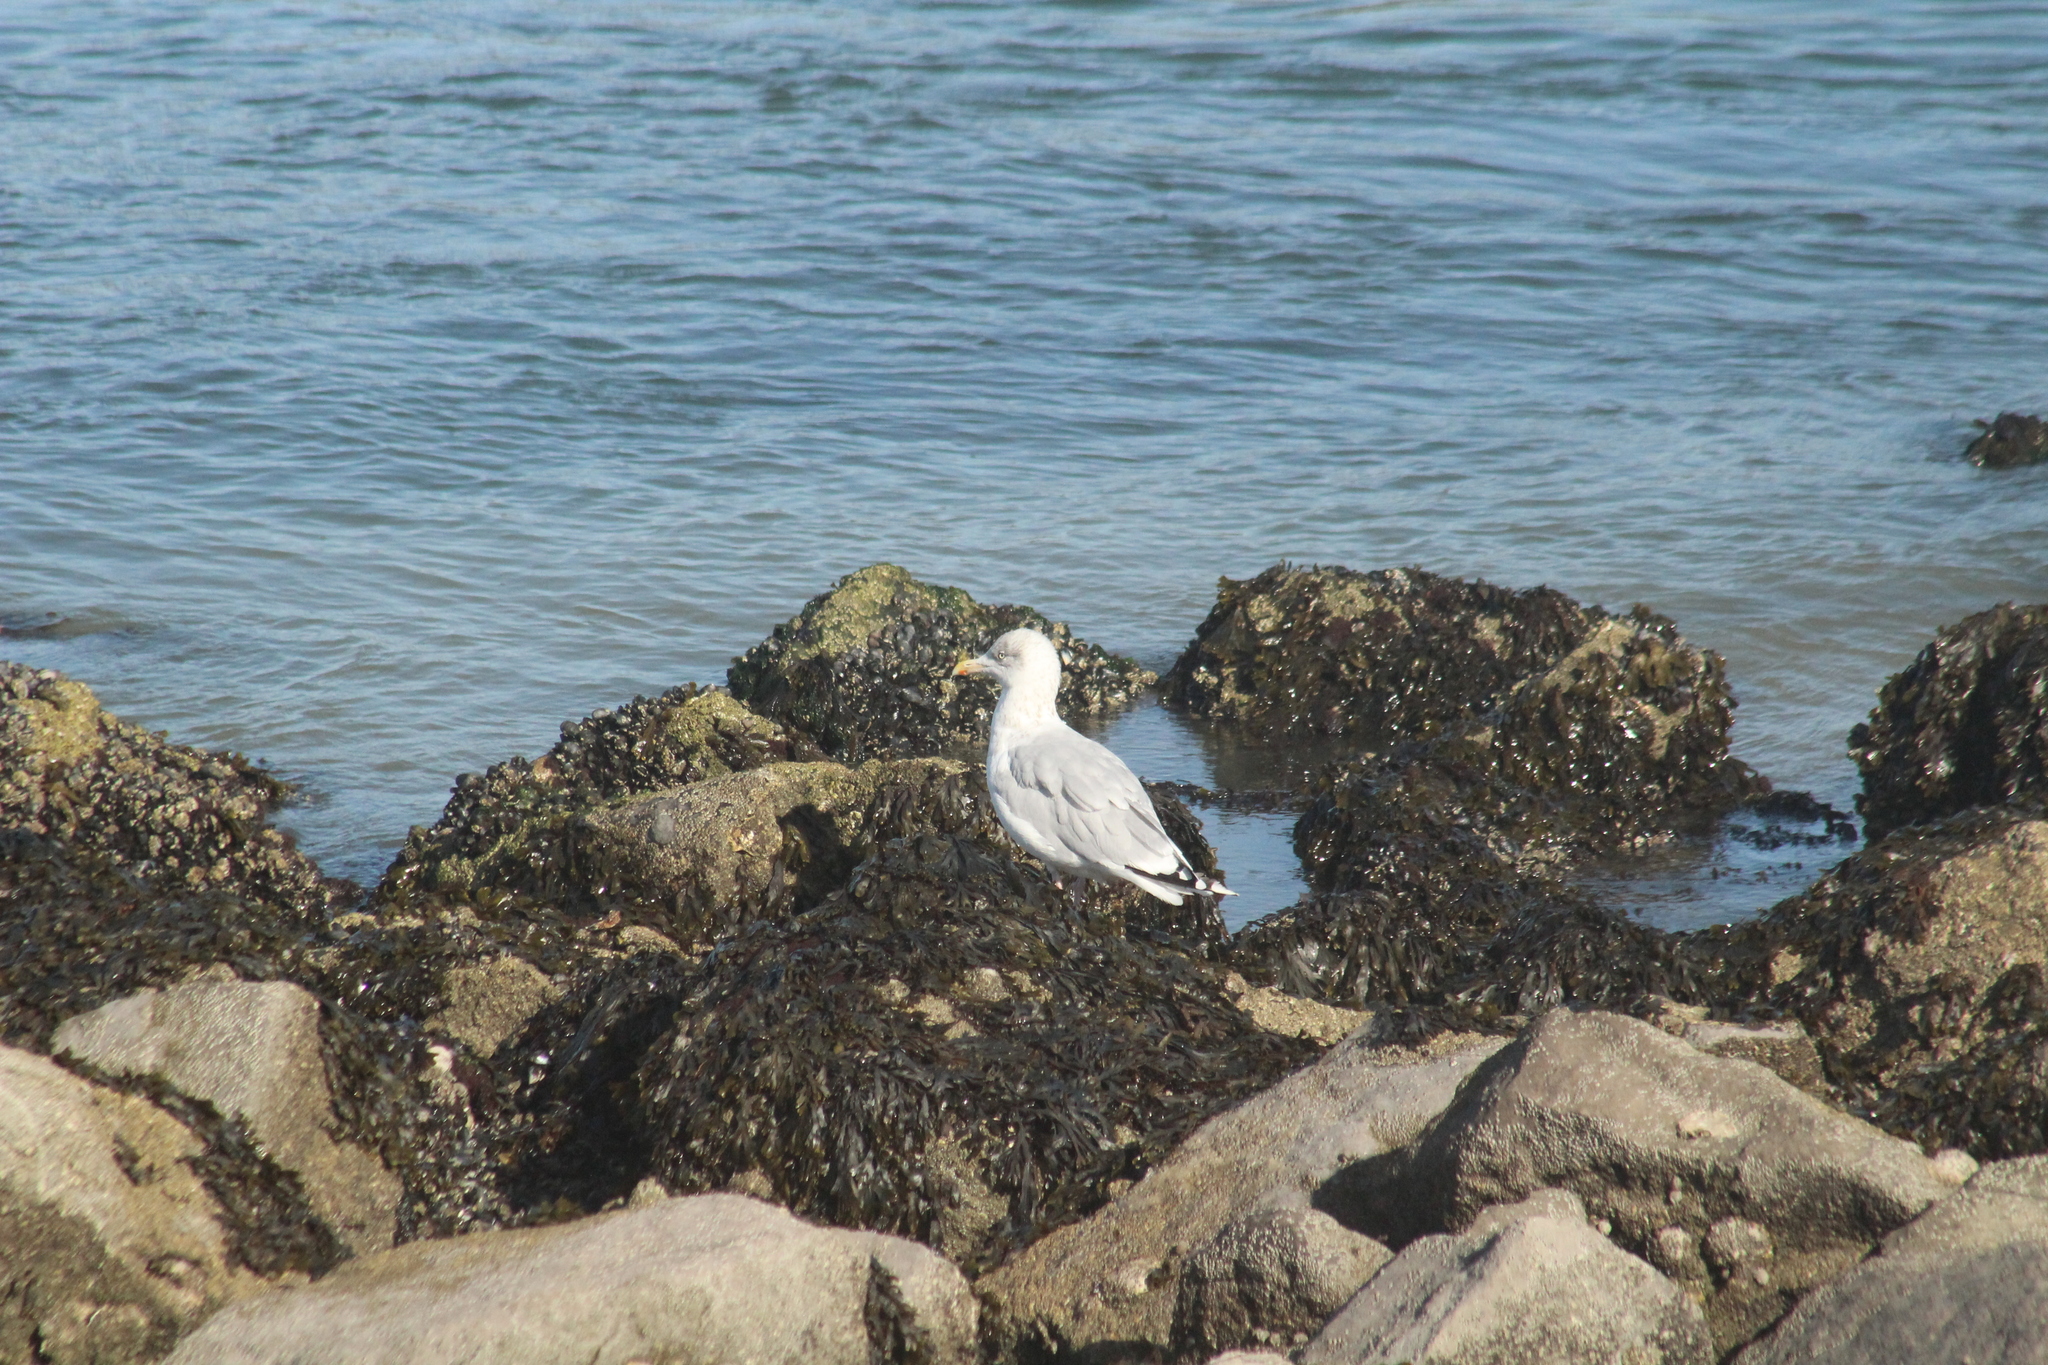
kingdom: Animalia
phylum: Chordata
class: Aves
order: Charadriiformes
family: Laridae
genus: Larus
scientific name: Larus argentatus
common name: Herring gull
